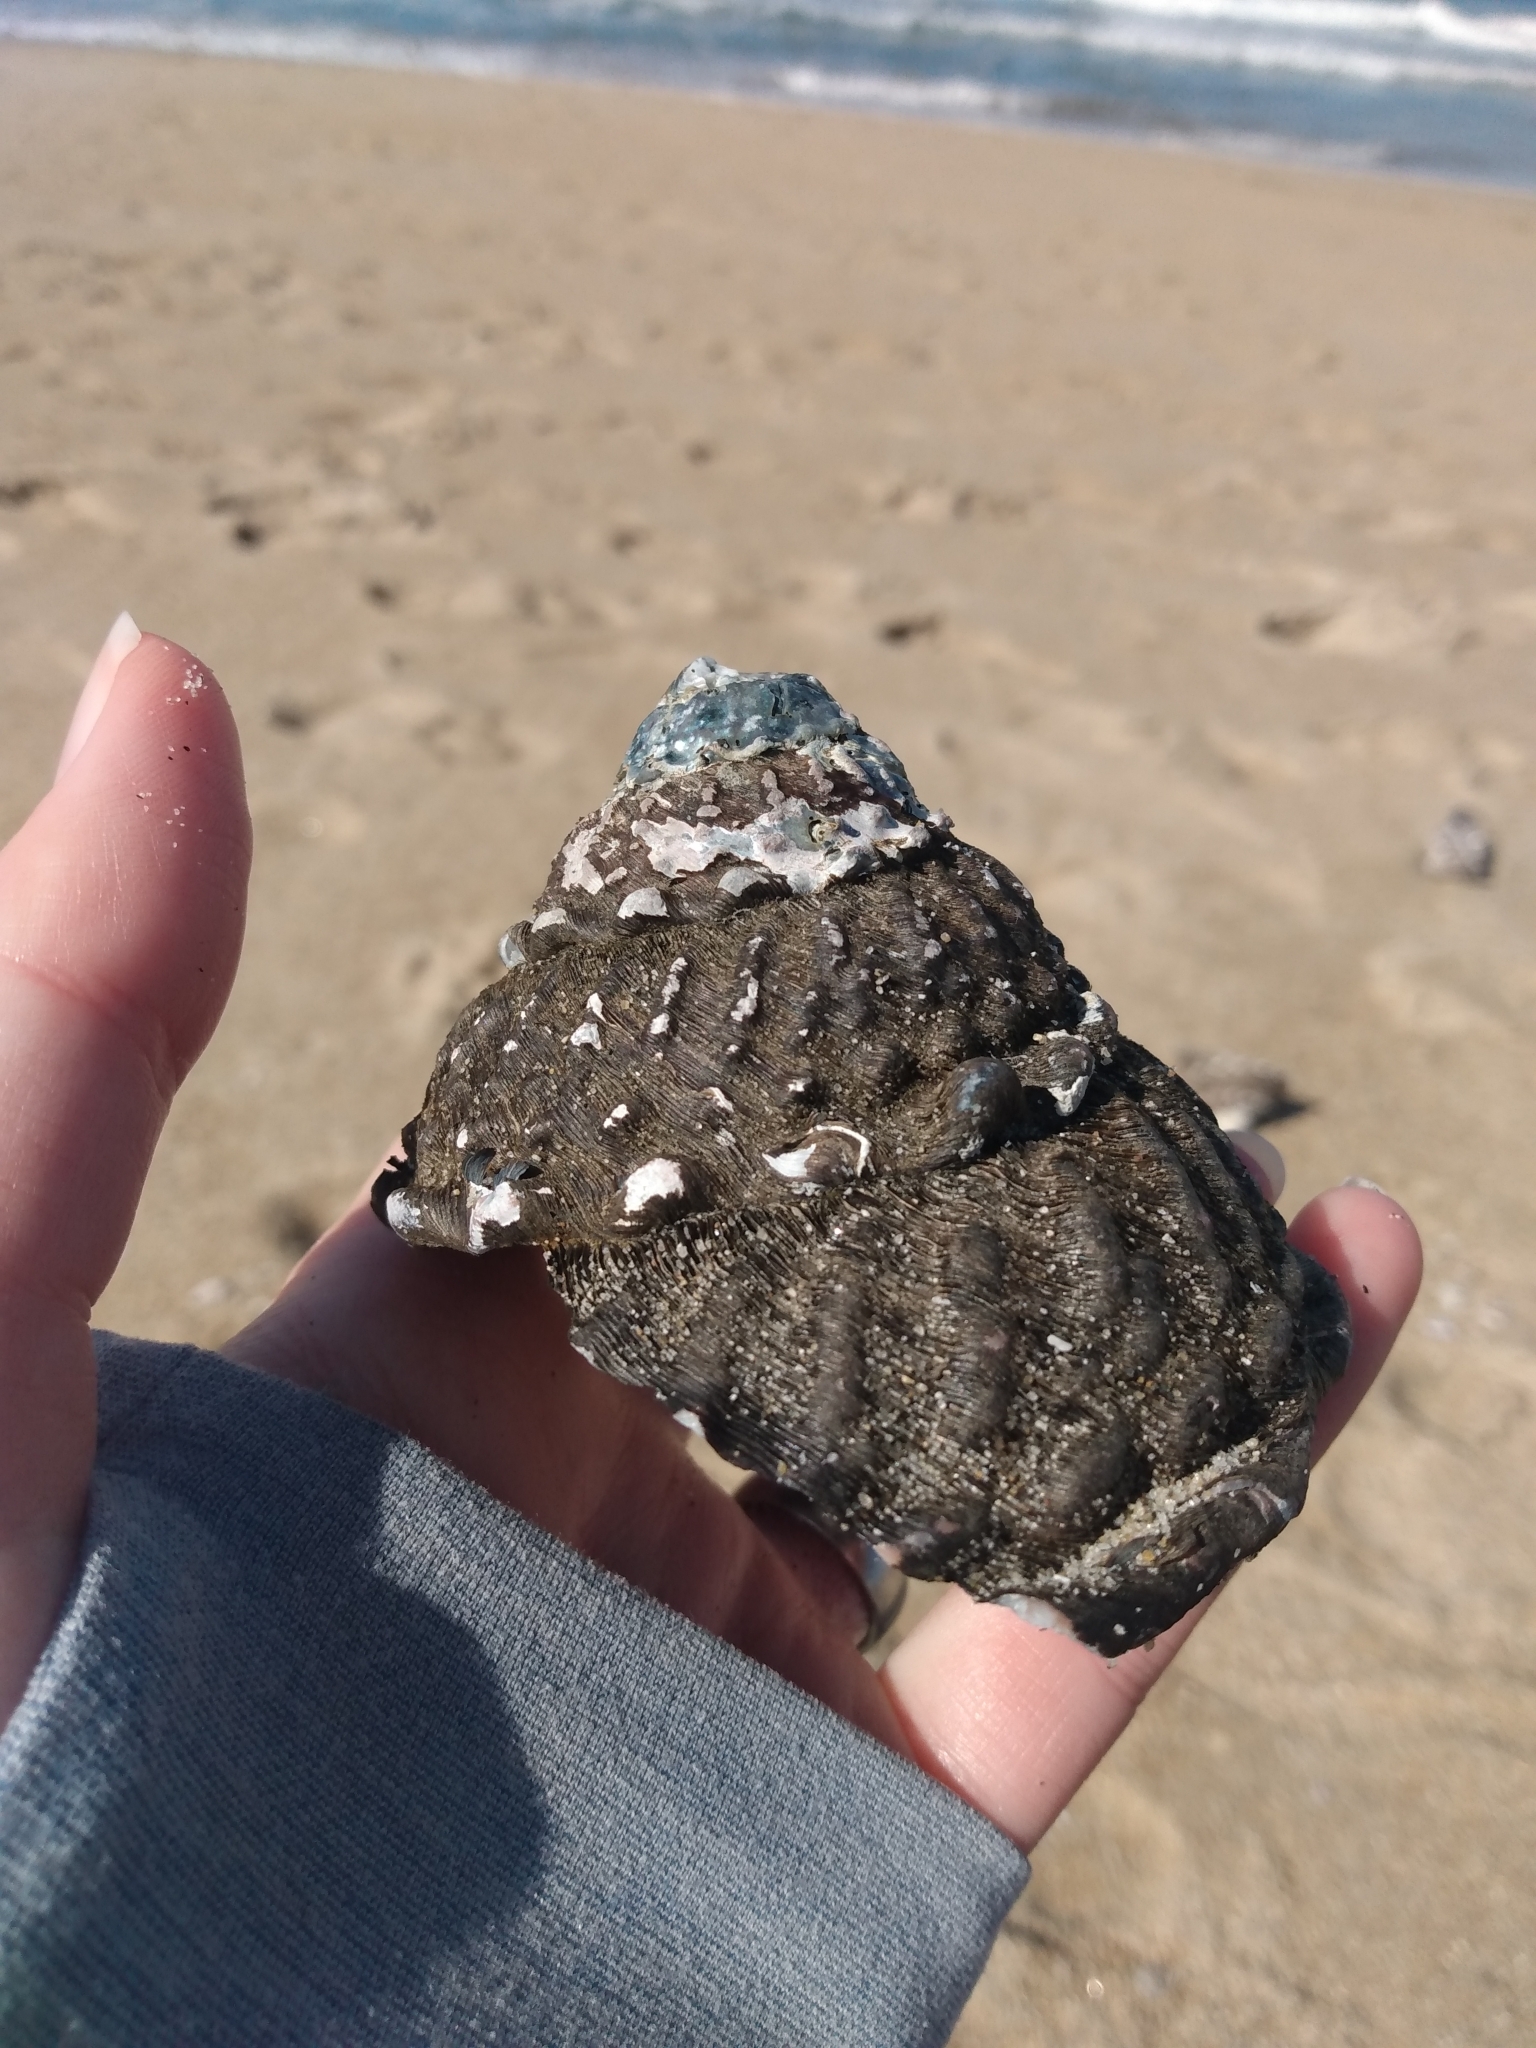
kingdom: Animalia
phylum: Mollusca
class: Gastropoda
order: Trochida
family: Turbinidae
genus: Megastraea
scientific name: Megastraea undosa
